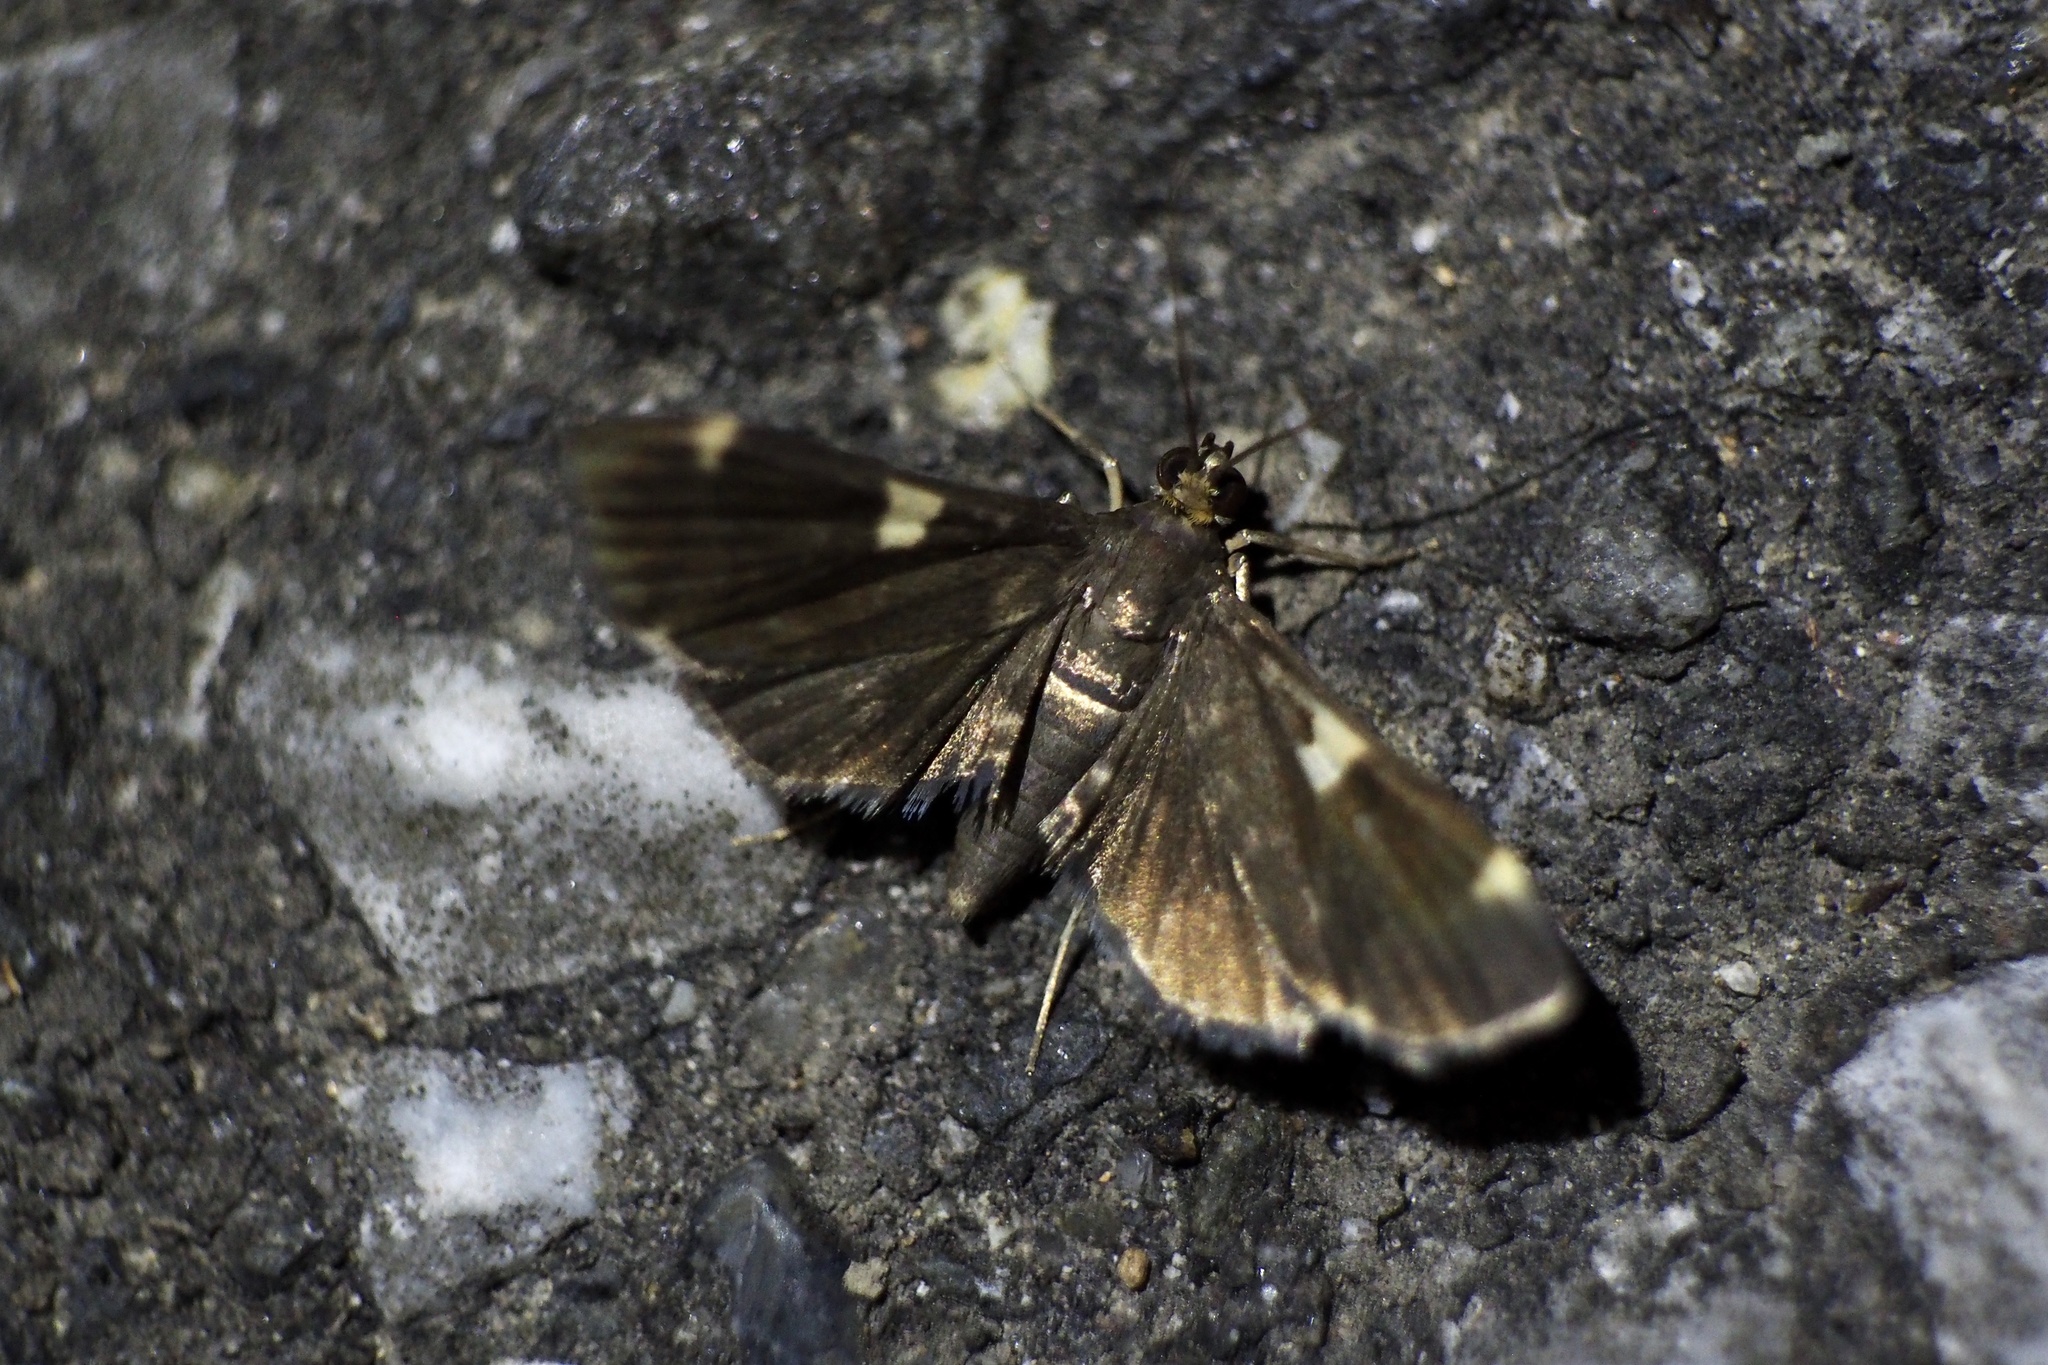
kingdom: Animalia
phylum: Arthropoda
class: Insecta
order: Lepidoptera
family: Crambidae
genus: Piletocera
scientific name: Piletocera aegimiusalis
